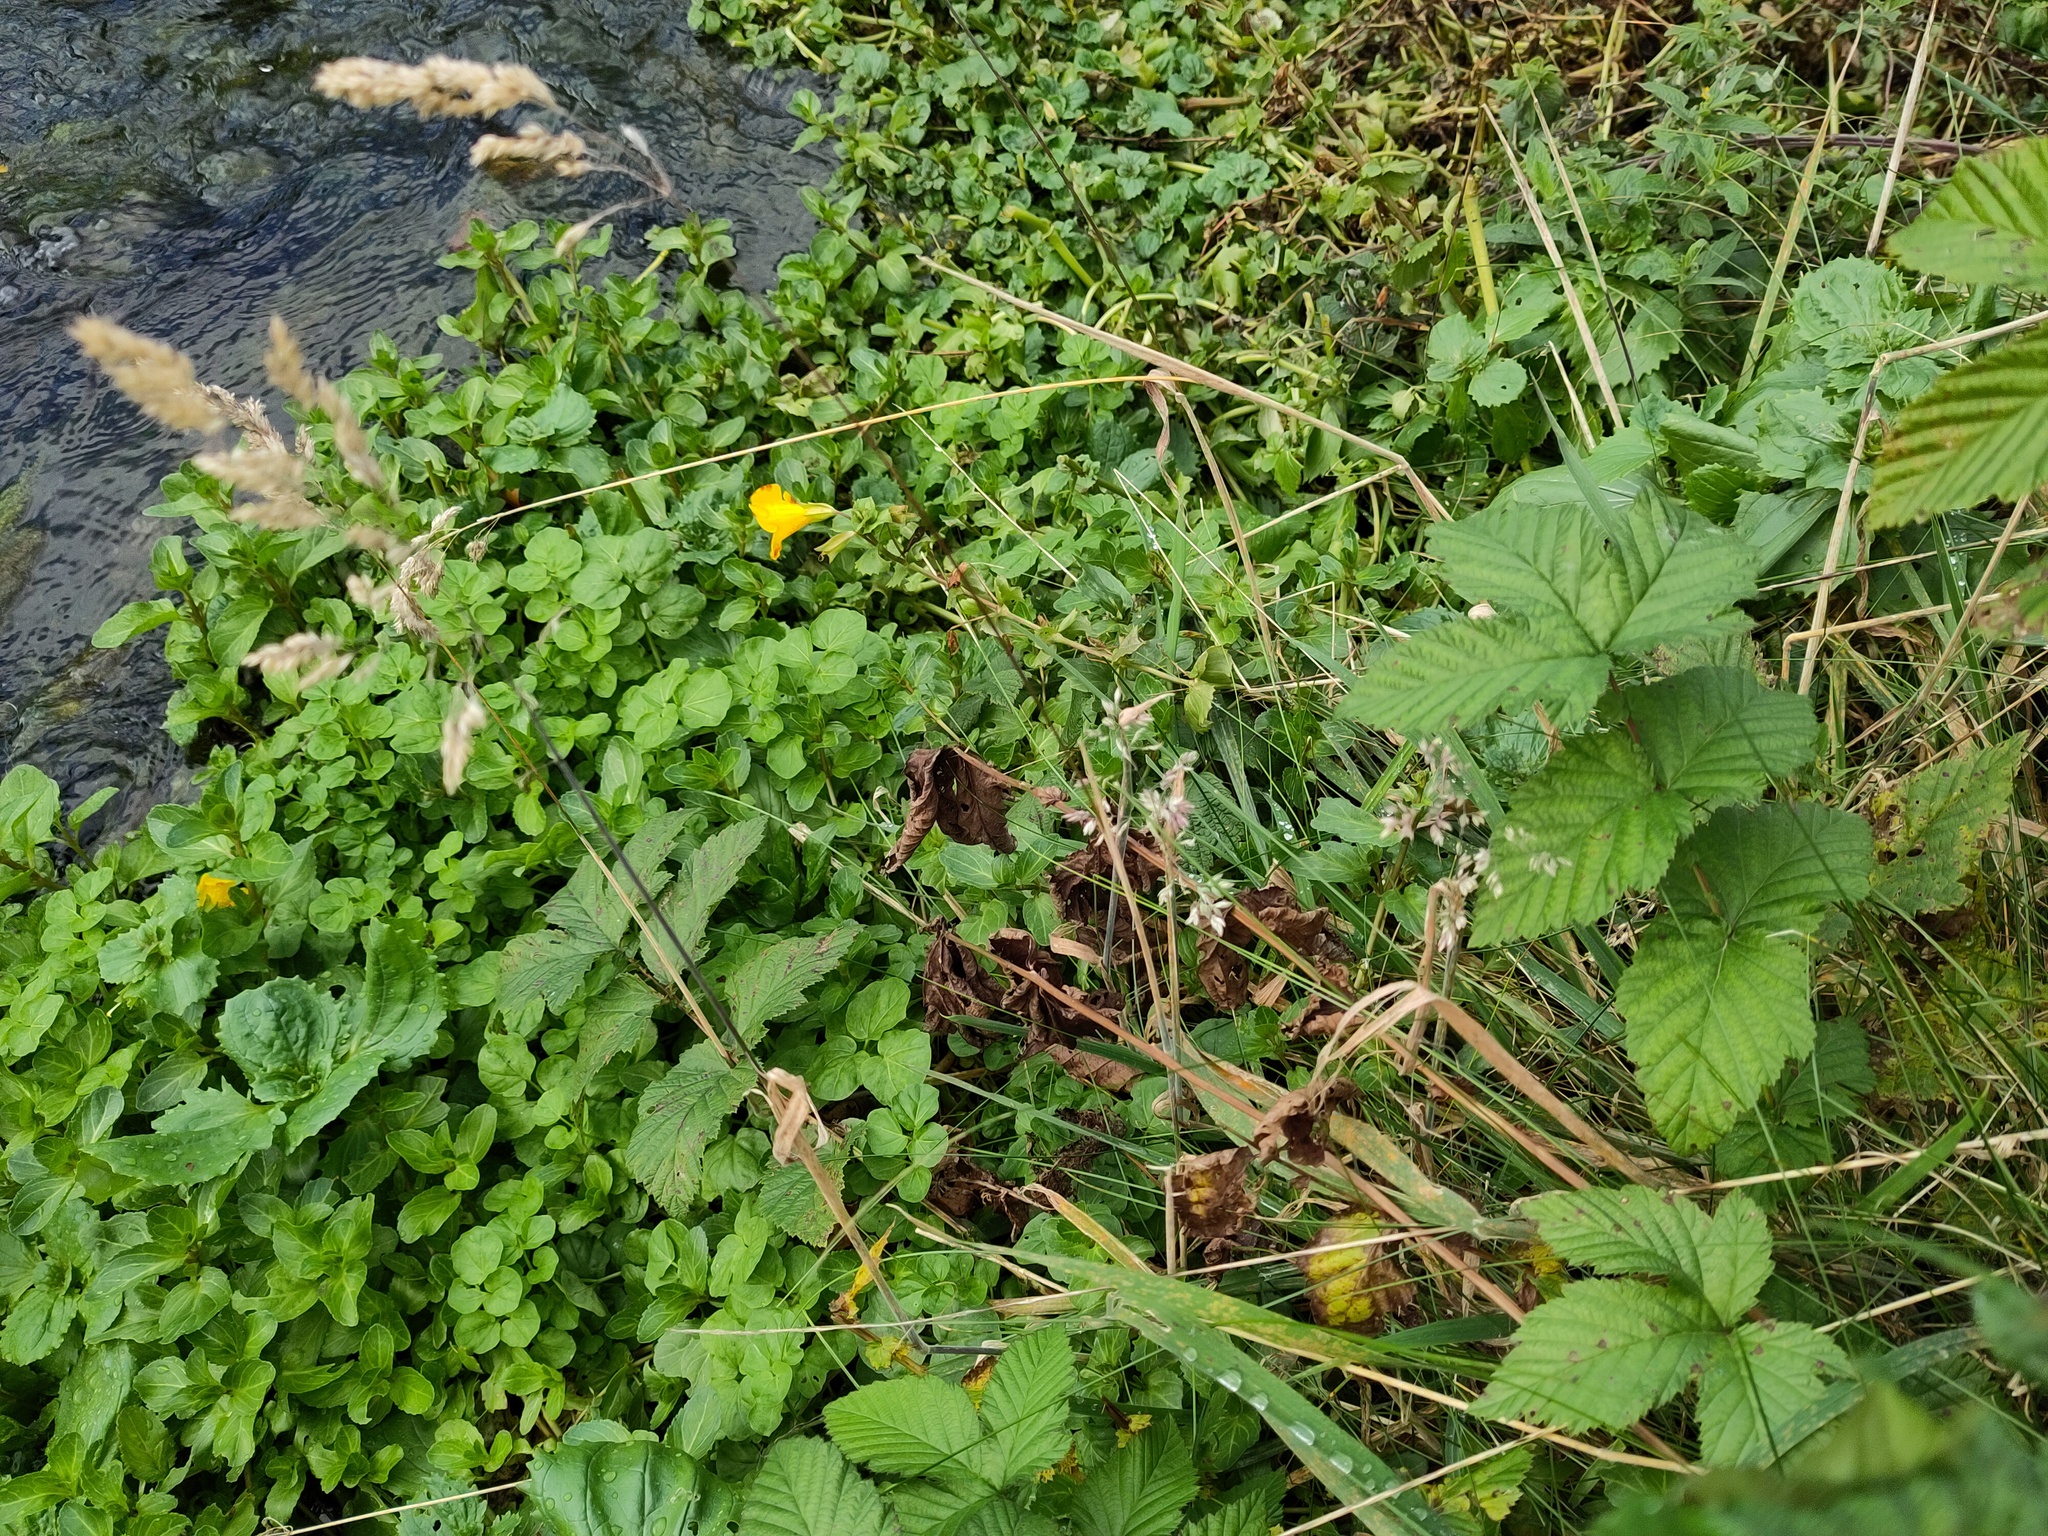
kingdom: Plantae
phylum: Tracheophyta
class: Magnoliopsida
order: Lamiales
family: Phrymaceae
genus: Erythranthe
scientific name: Erythranthe guttata
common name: Monkeyflower
